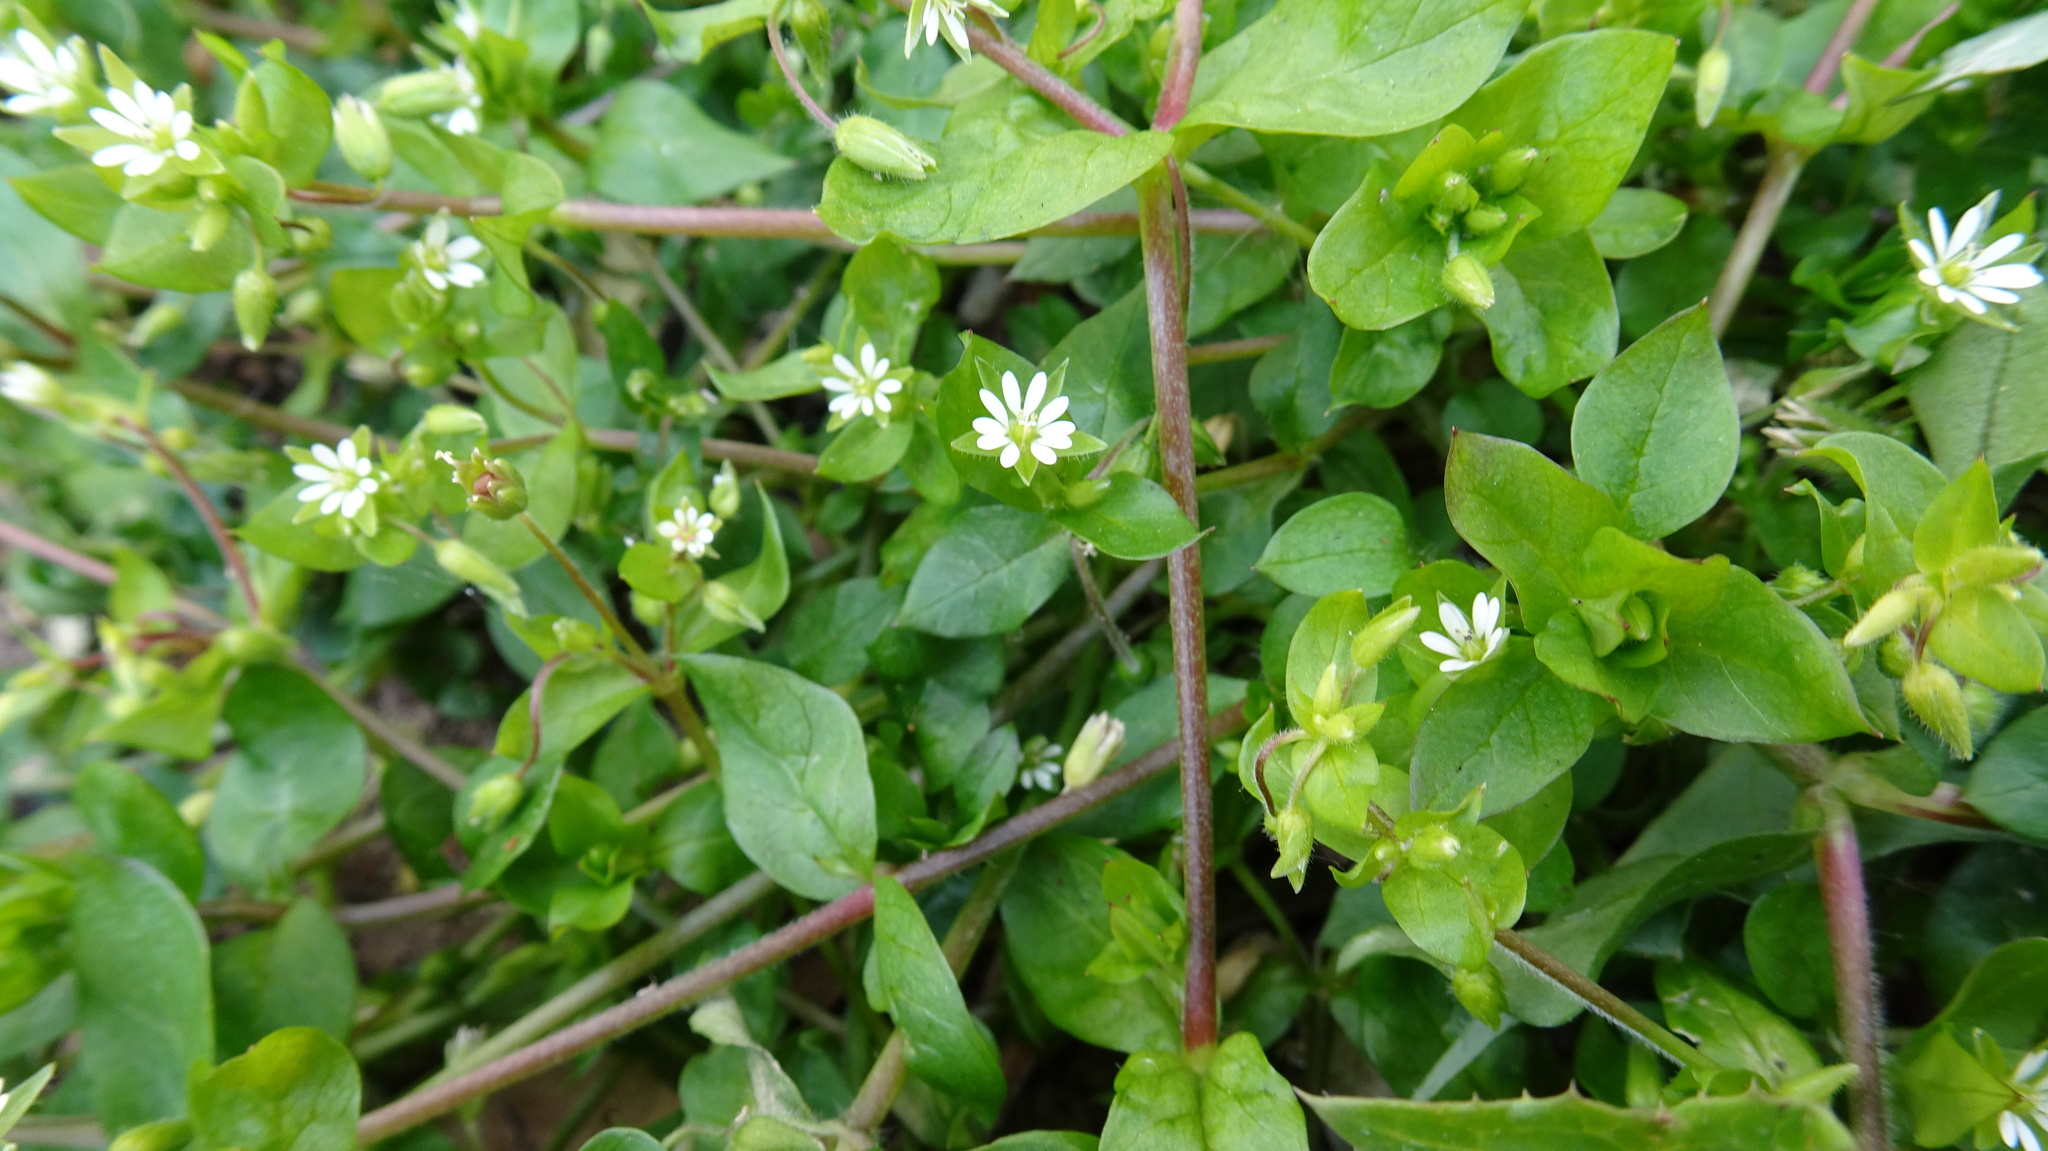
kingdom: Plantae
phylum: Tracheophyta
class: Magnoliopsida
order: Caryophyllales
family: Caryophyllaceae
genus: Stellaria
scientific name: Stellaria media
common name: Common chickweed
